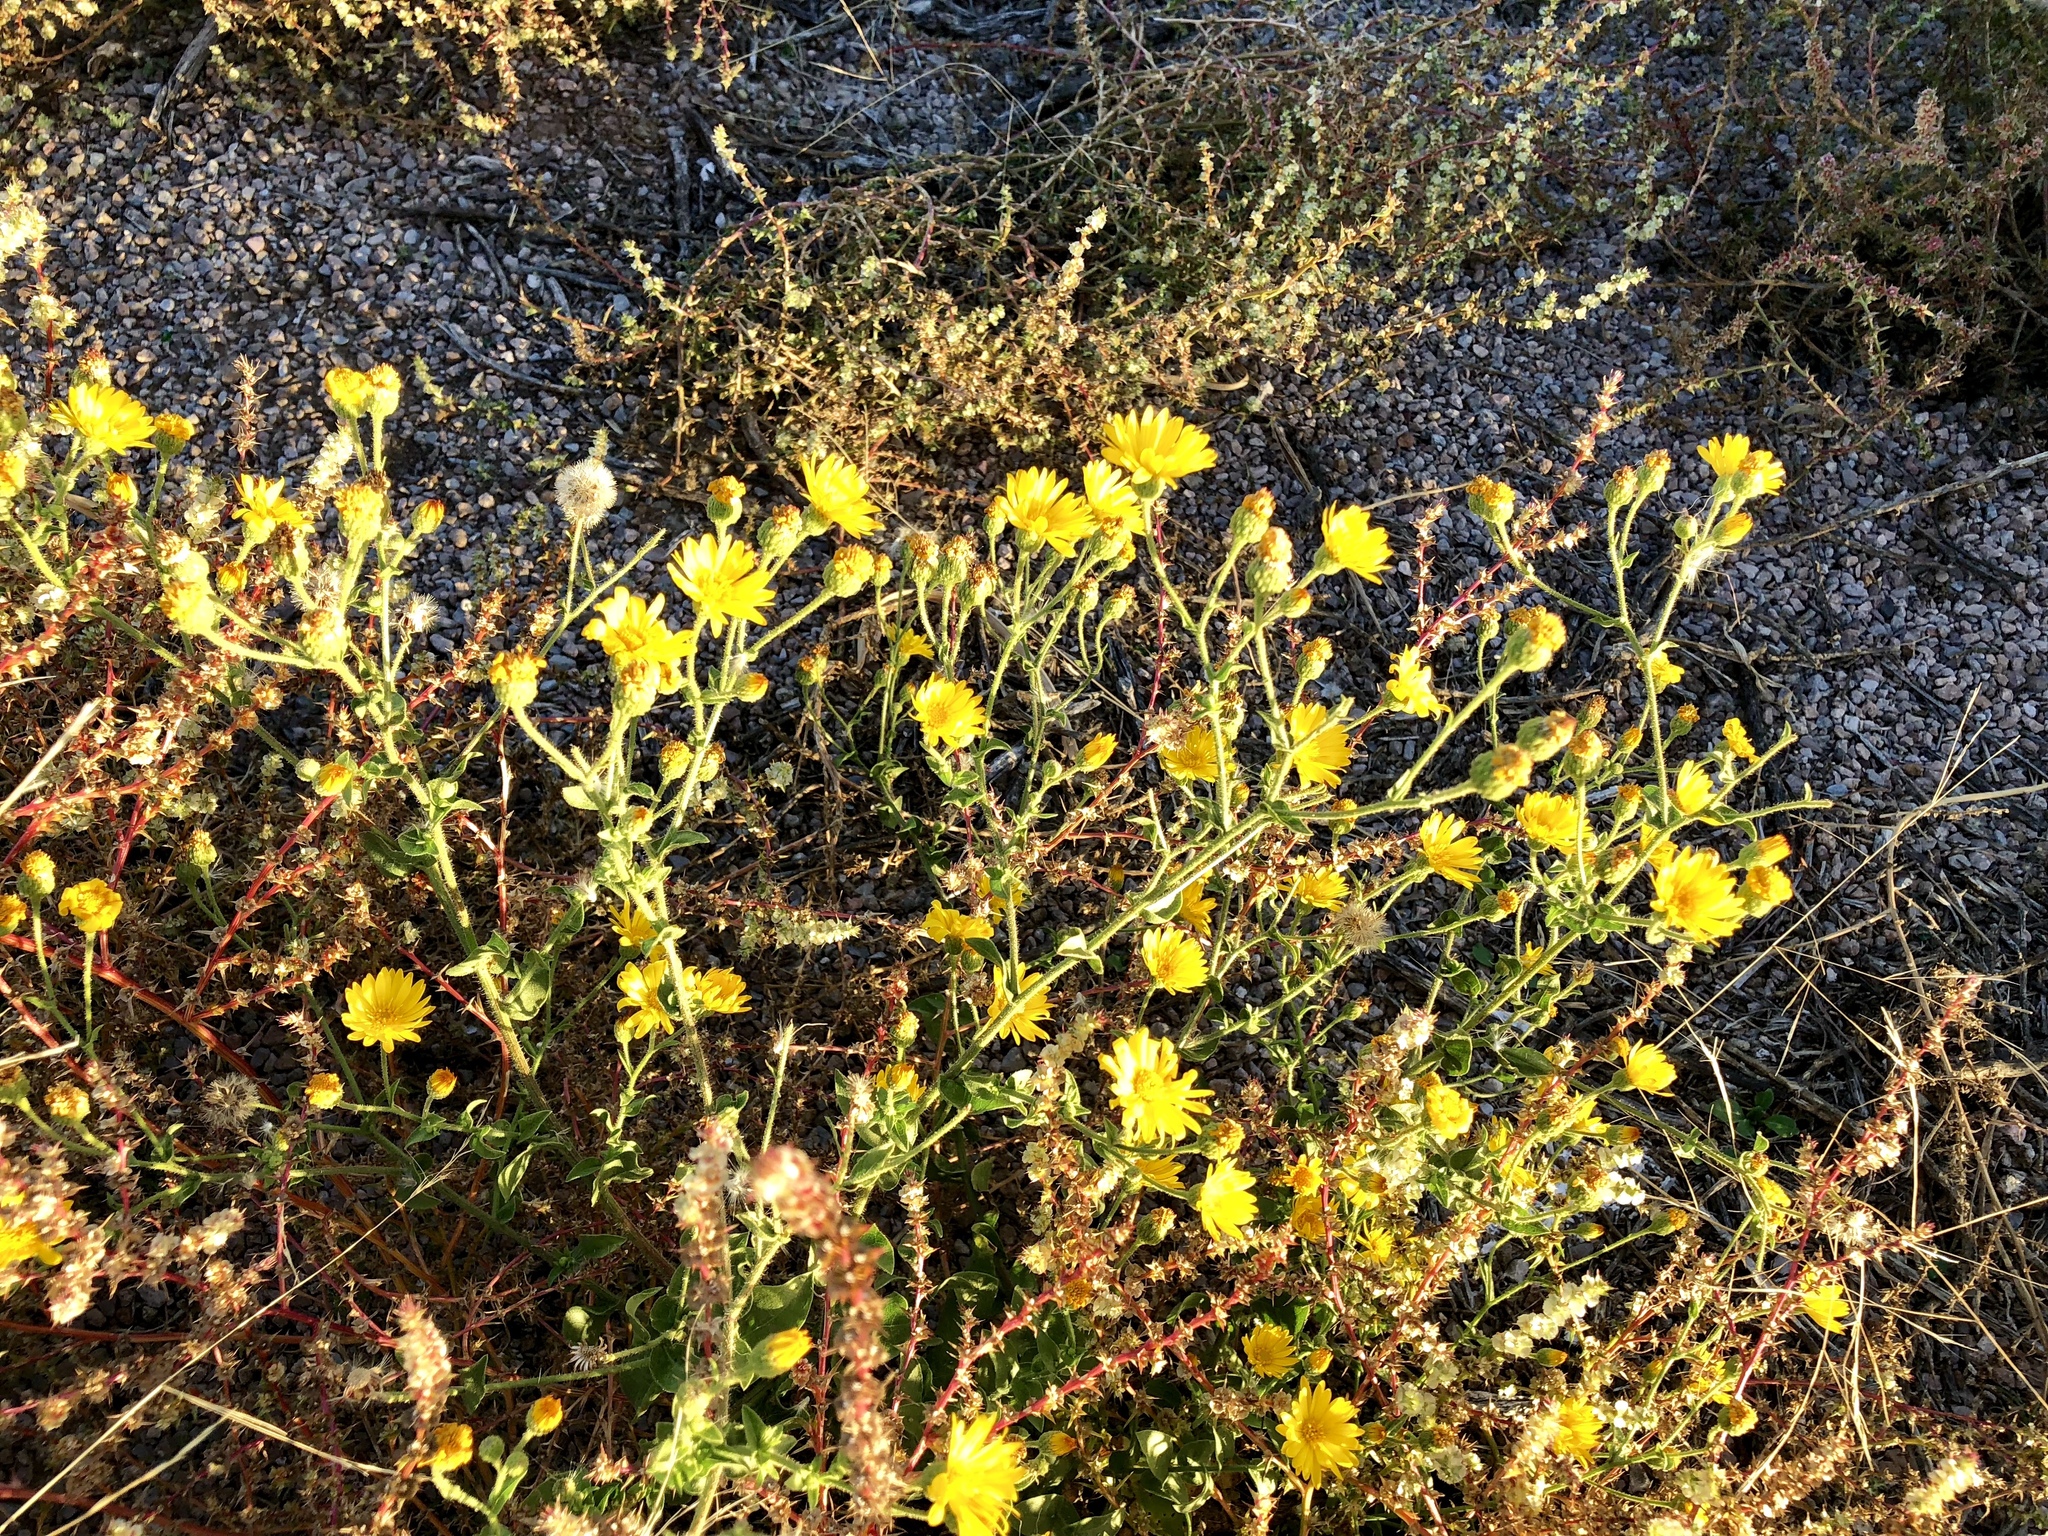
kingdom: Plantae
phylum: Tracheophyta
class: Magnoliopsida
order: Asterales
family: Asteraceae
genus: Xanthisma
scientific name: Xanthisma spinulosum
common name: Spiny goldenweed
